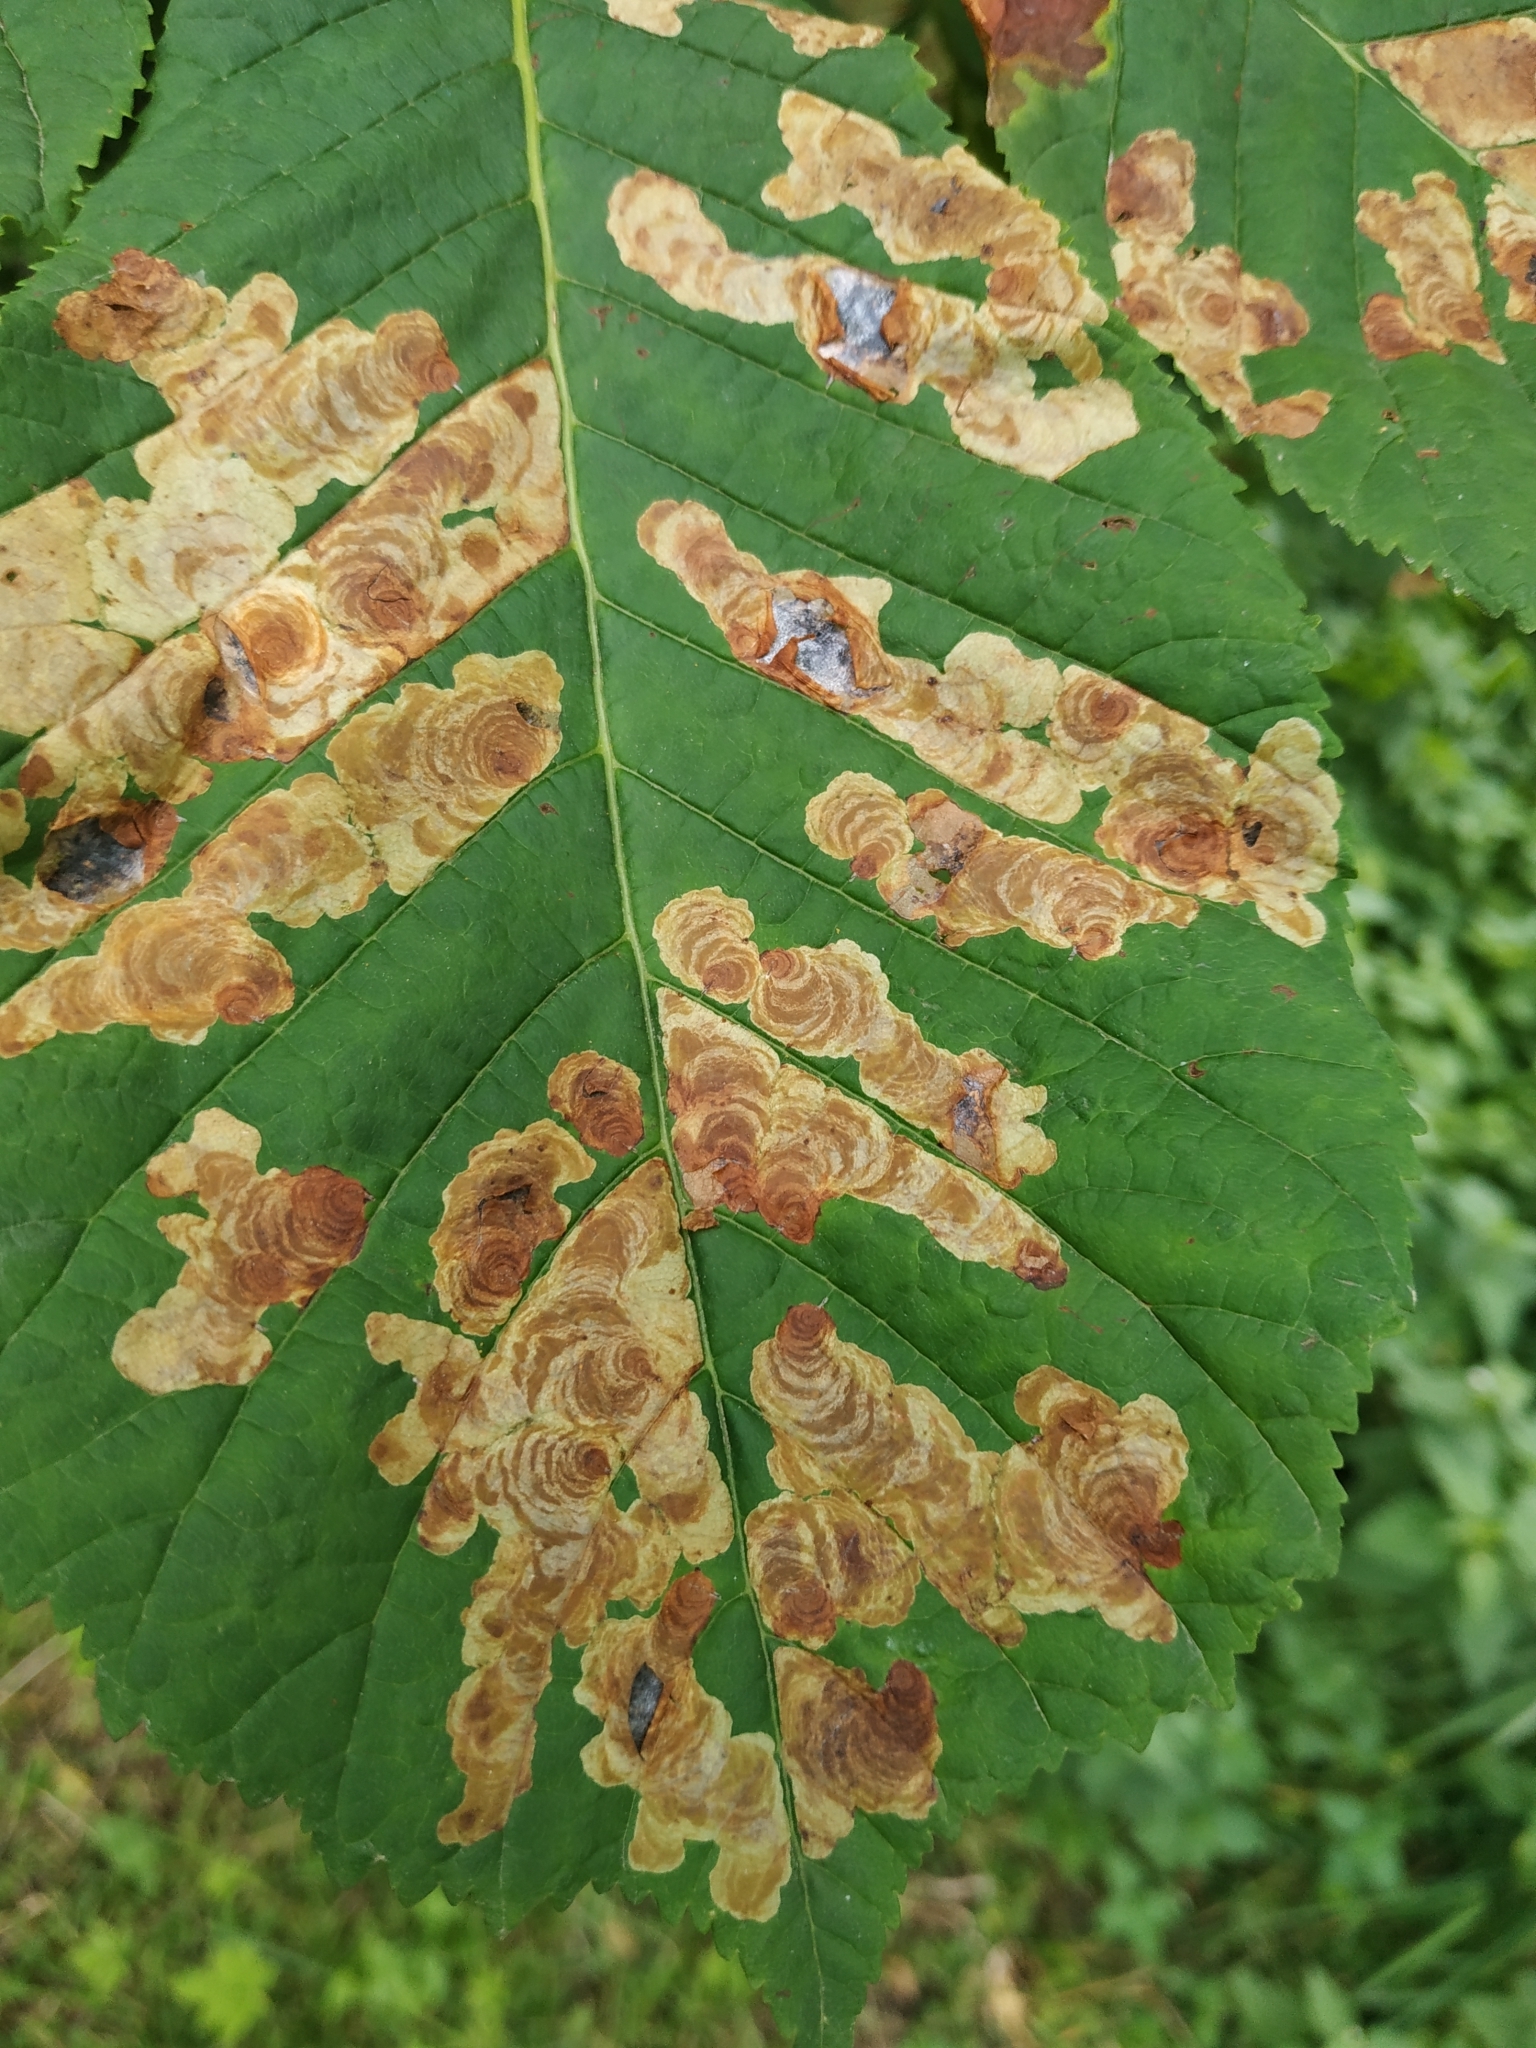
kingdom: Animalia
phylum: Arthropoda
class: Insecta
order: Lepidoptera
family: Gracillariidae
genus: Cameraria
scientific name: Cameraria ohridella
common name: Horse-chestnut leaf-miner
